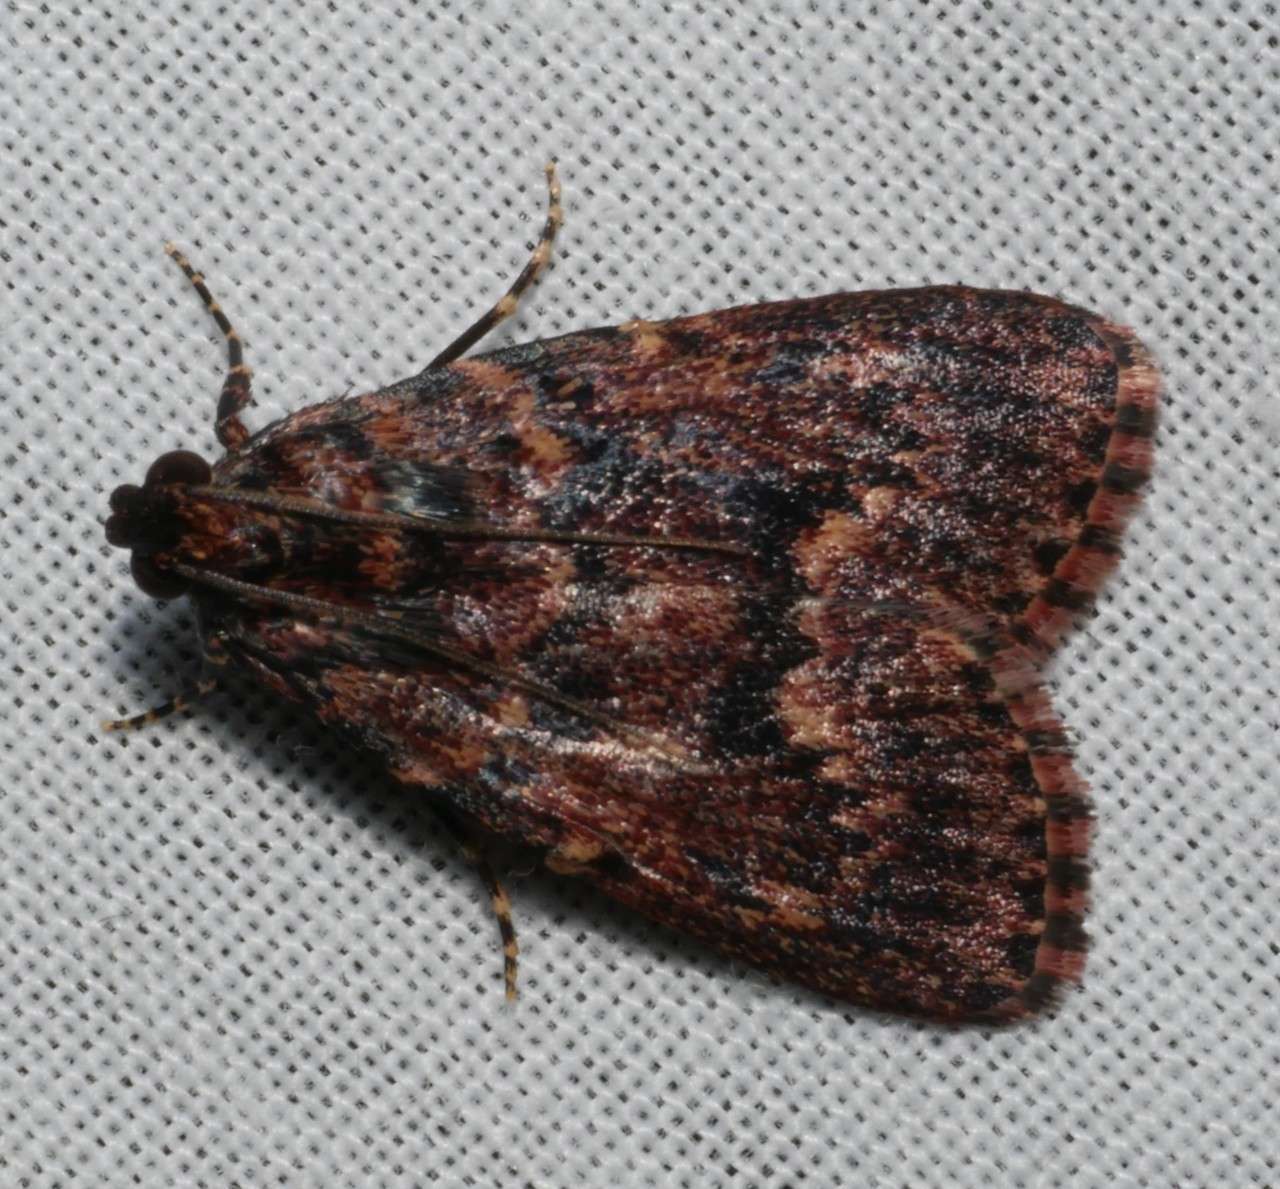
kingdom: Animalia
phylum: Arthropoda
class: Insecta
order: Lepidoptera
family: Pyralidae
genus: Mimaglossa
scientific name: Mimaglossa nauplialis
